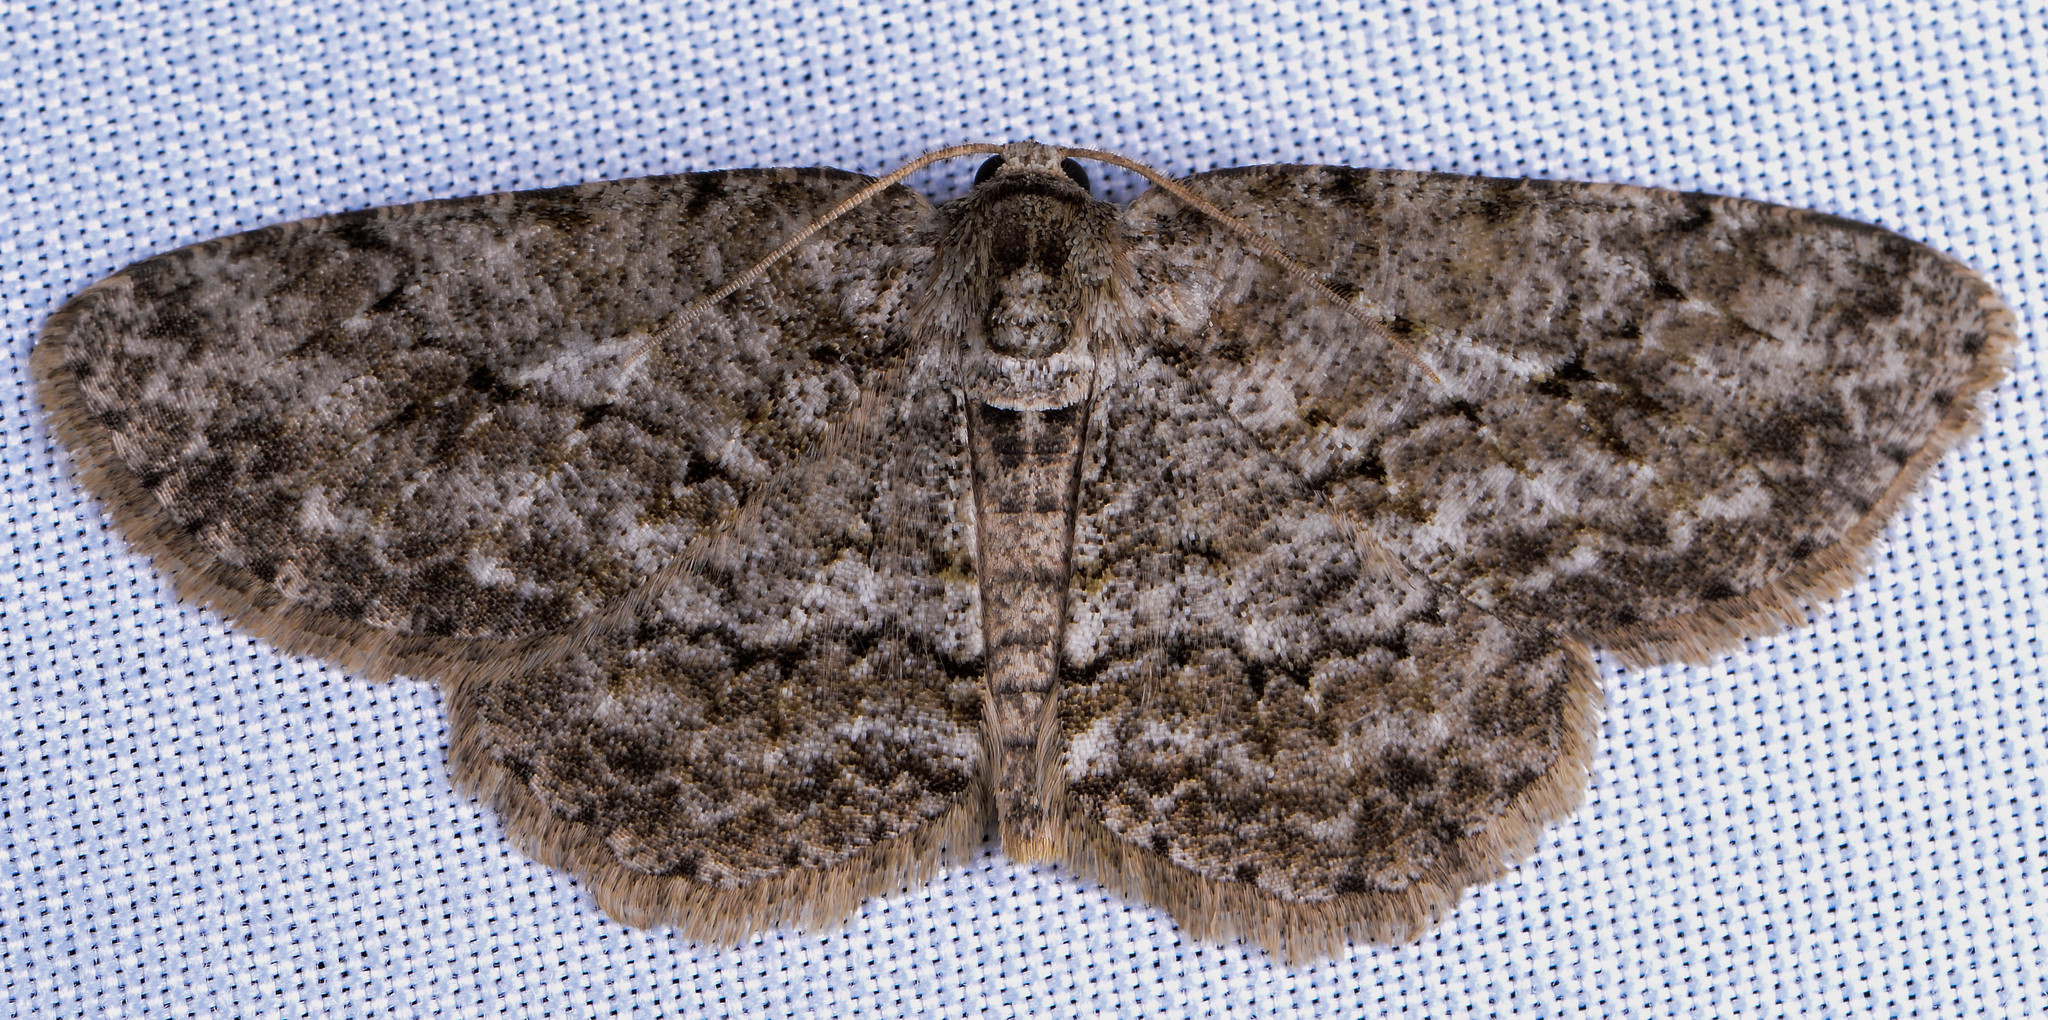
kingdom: Animalia
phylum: Arthropoda
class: Insecta
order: Lepidoptera
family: Geometridae
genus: Ectropis
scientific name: Ectropis crepuscularia
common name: Engrailed
